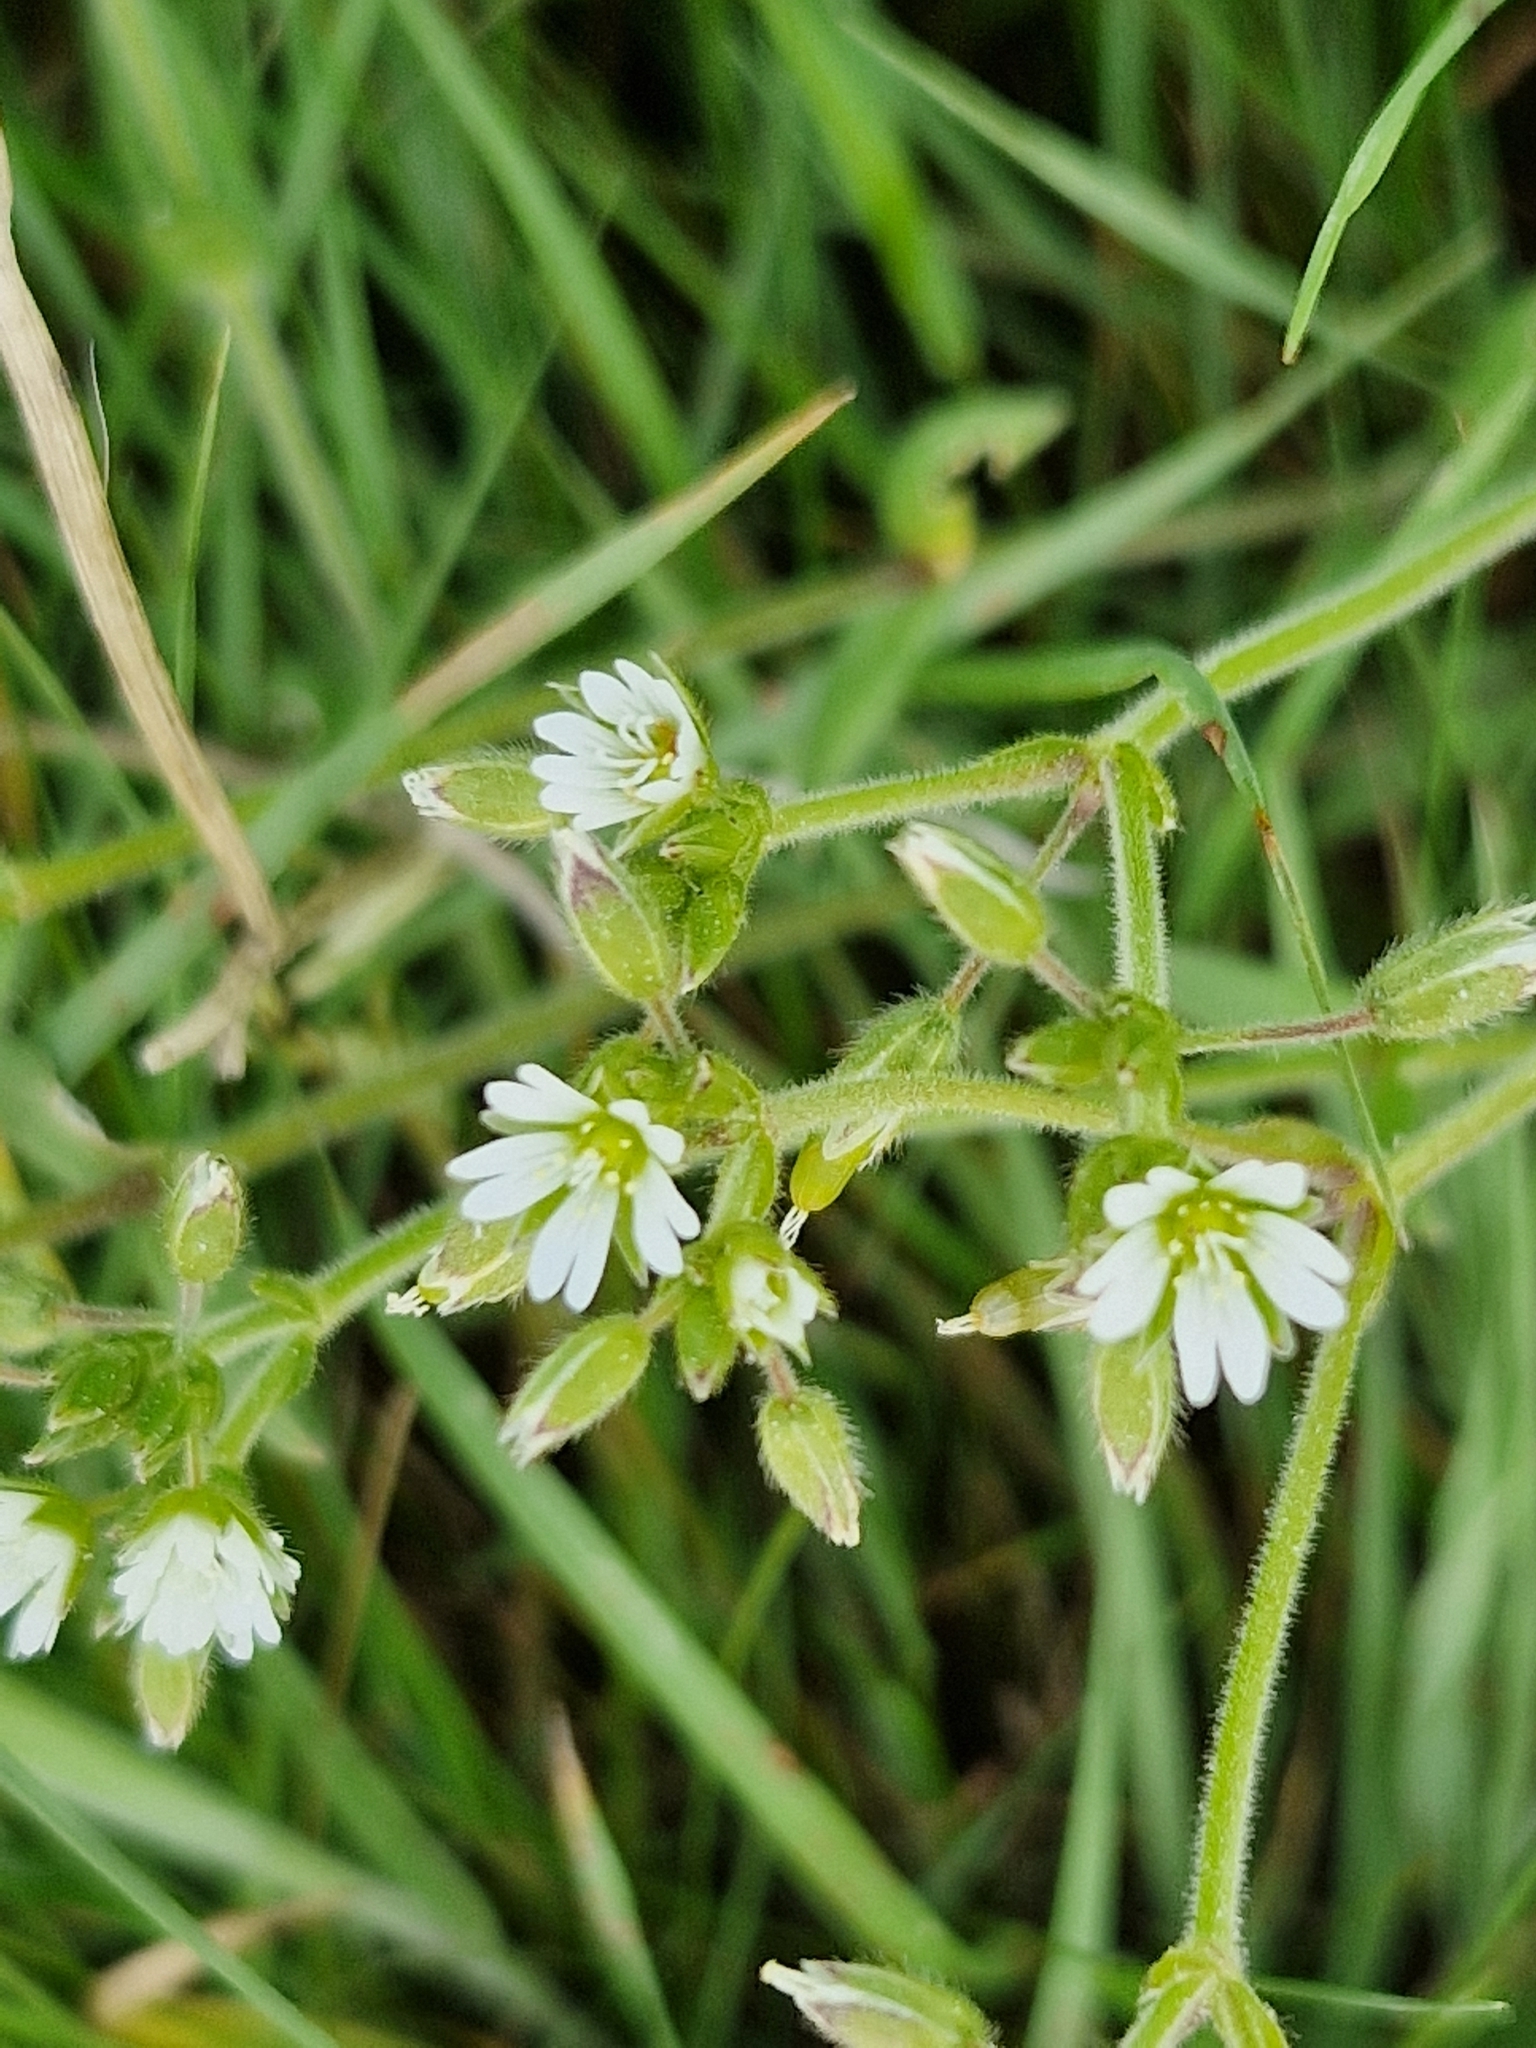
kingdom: Plantae
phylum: Tracheophyta
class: Magnoliopsida
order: Caryophyllales
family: Caryophyllaceae
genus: Rabelera
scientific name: Rabelera holostea
